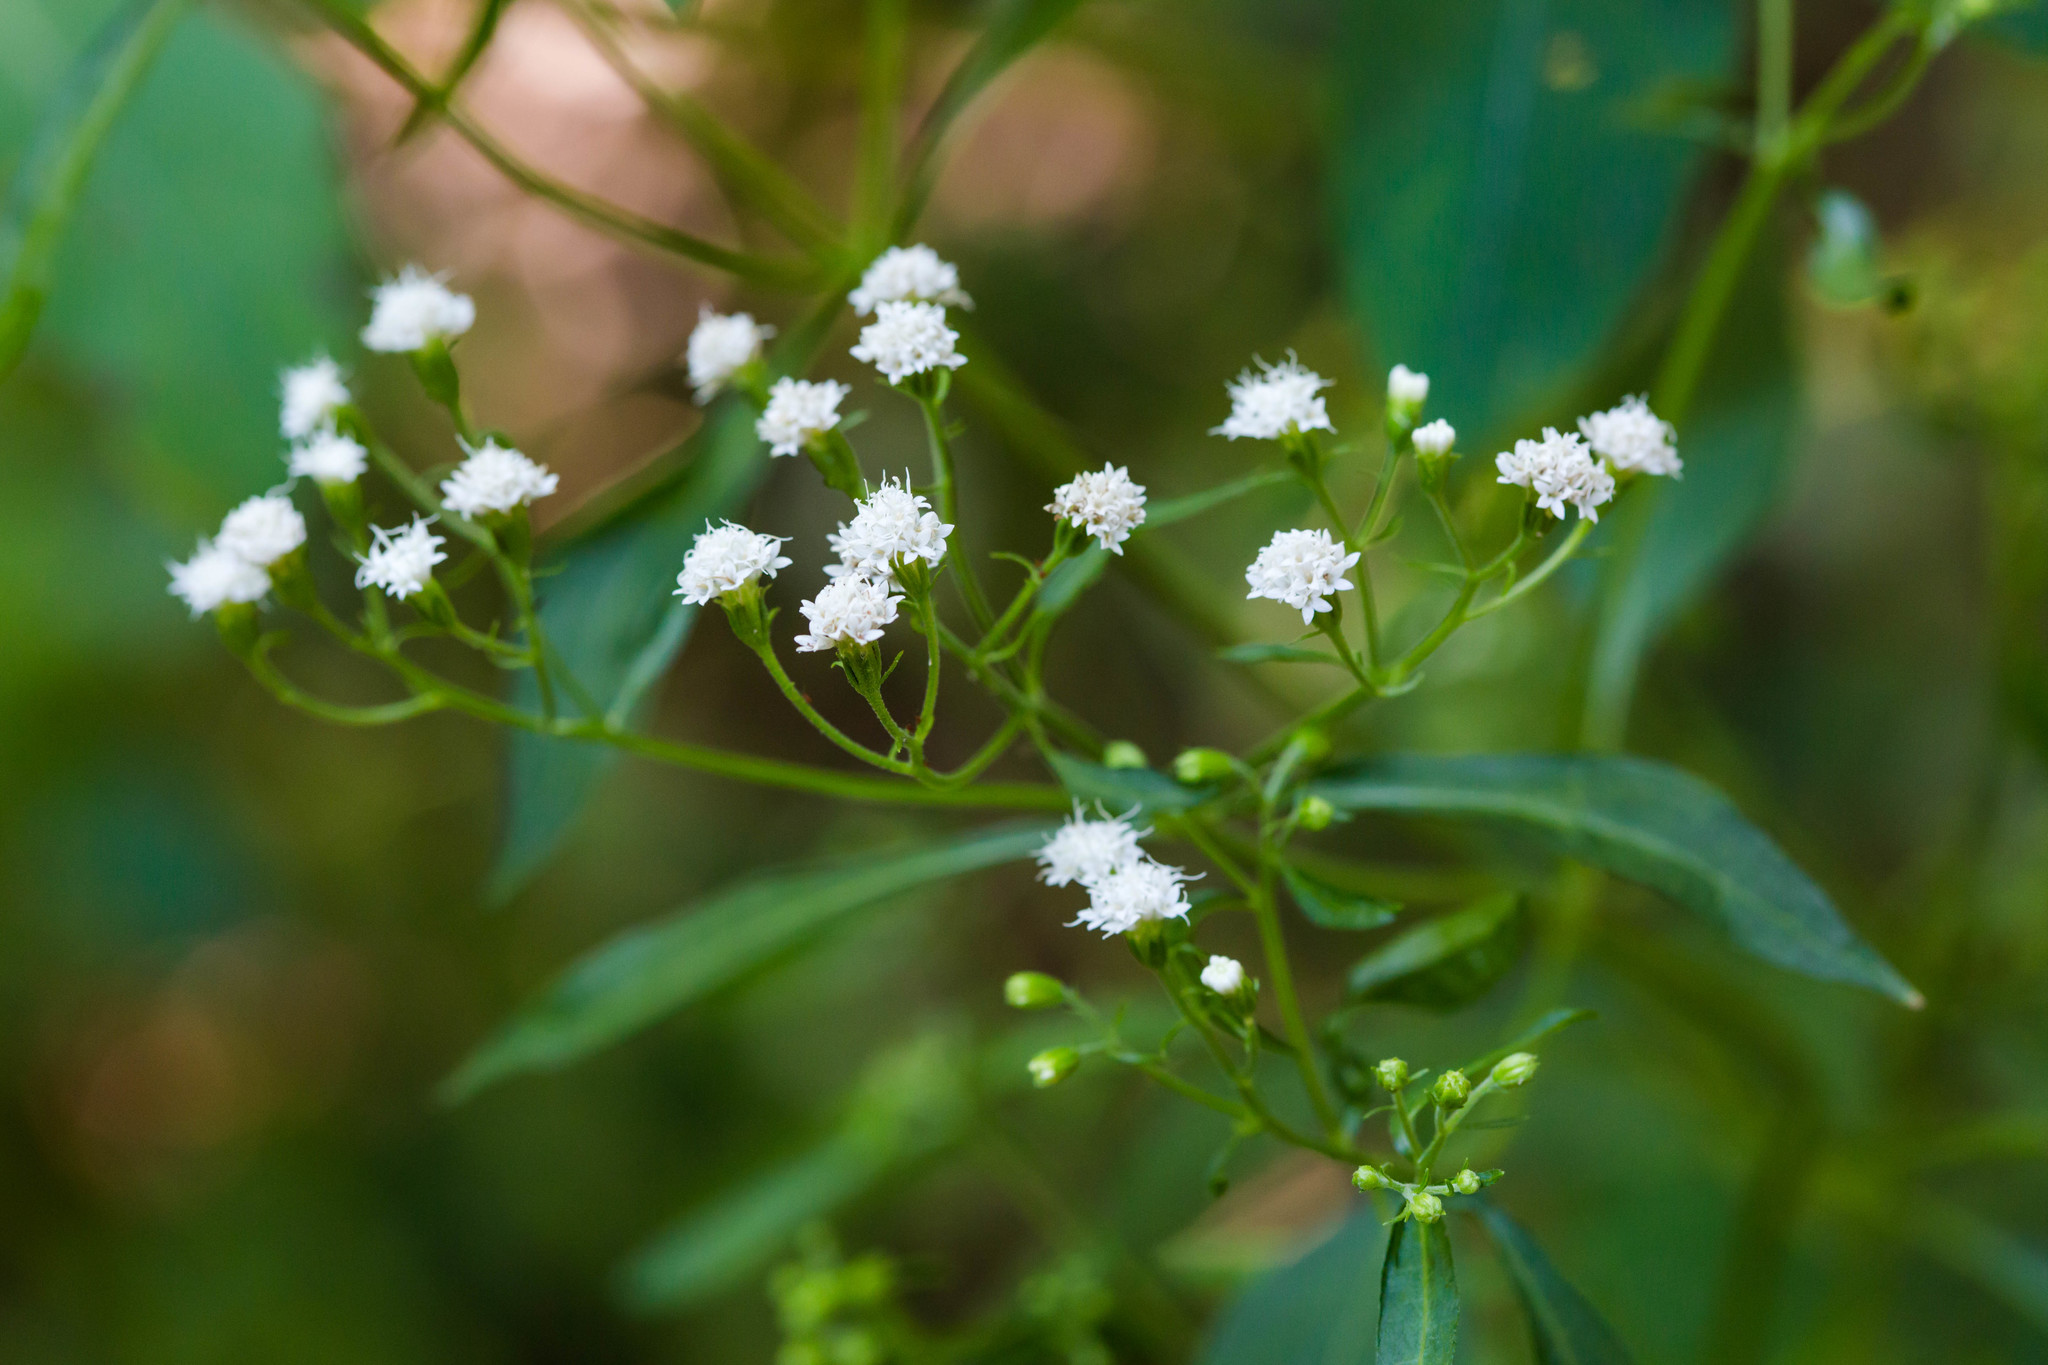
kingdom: Plantae
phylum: Tracheophyta
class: Magnoliopsida
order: Asterales
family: Asteraceae
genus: Ageratina
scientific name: Ageratina altissima
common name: White snakeroot
